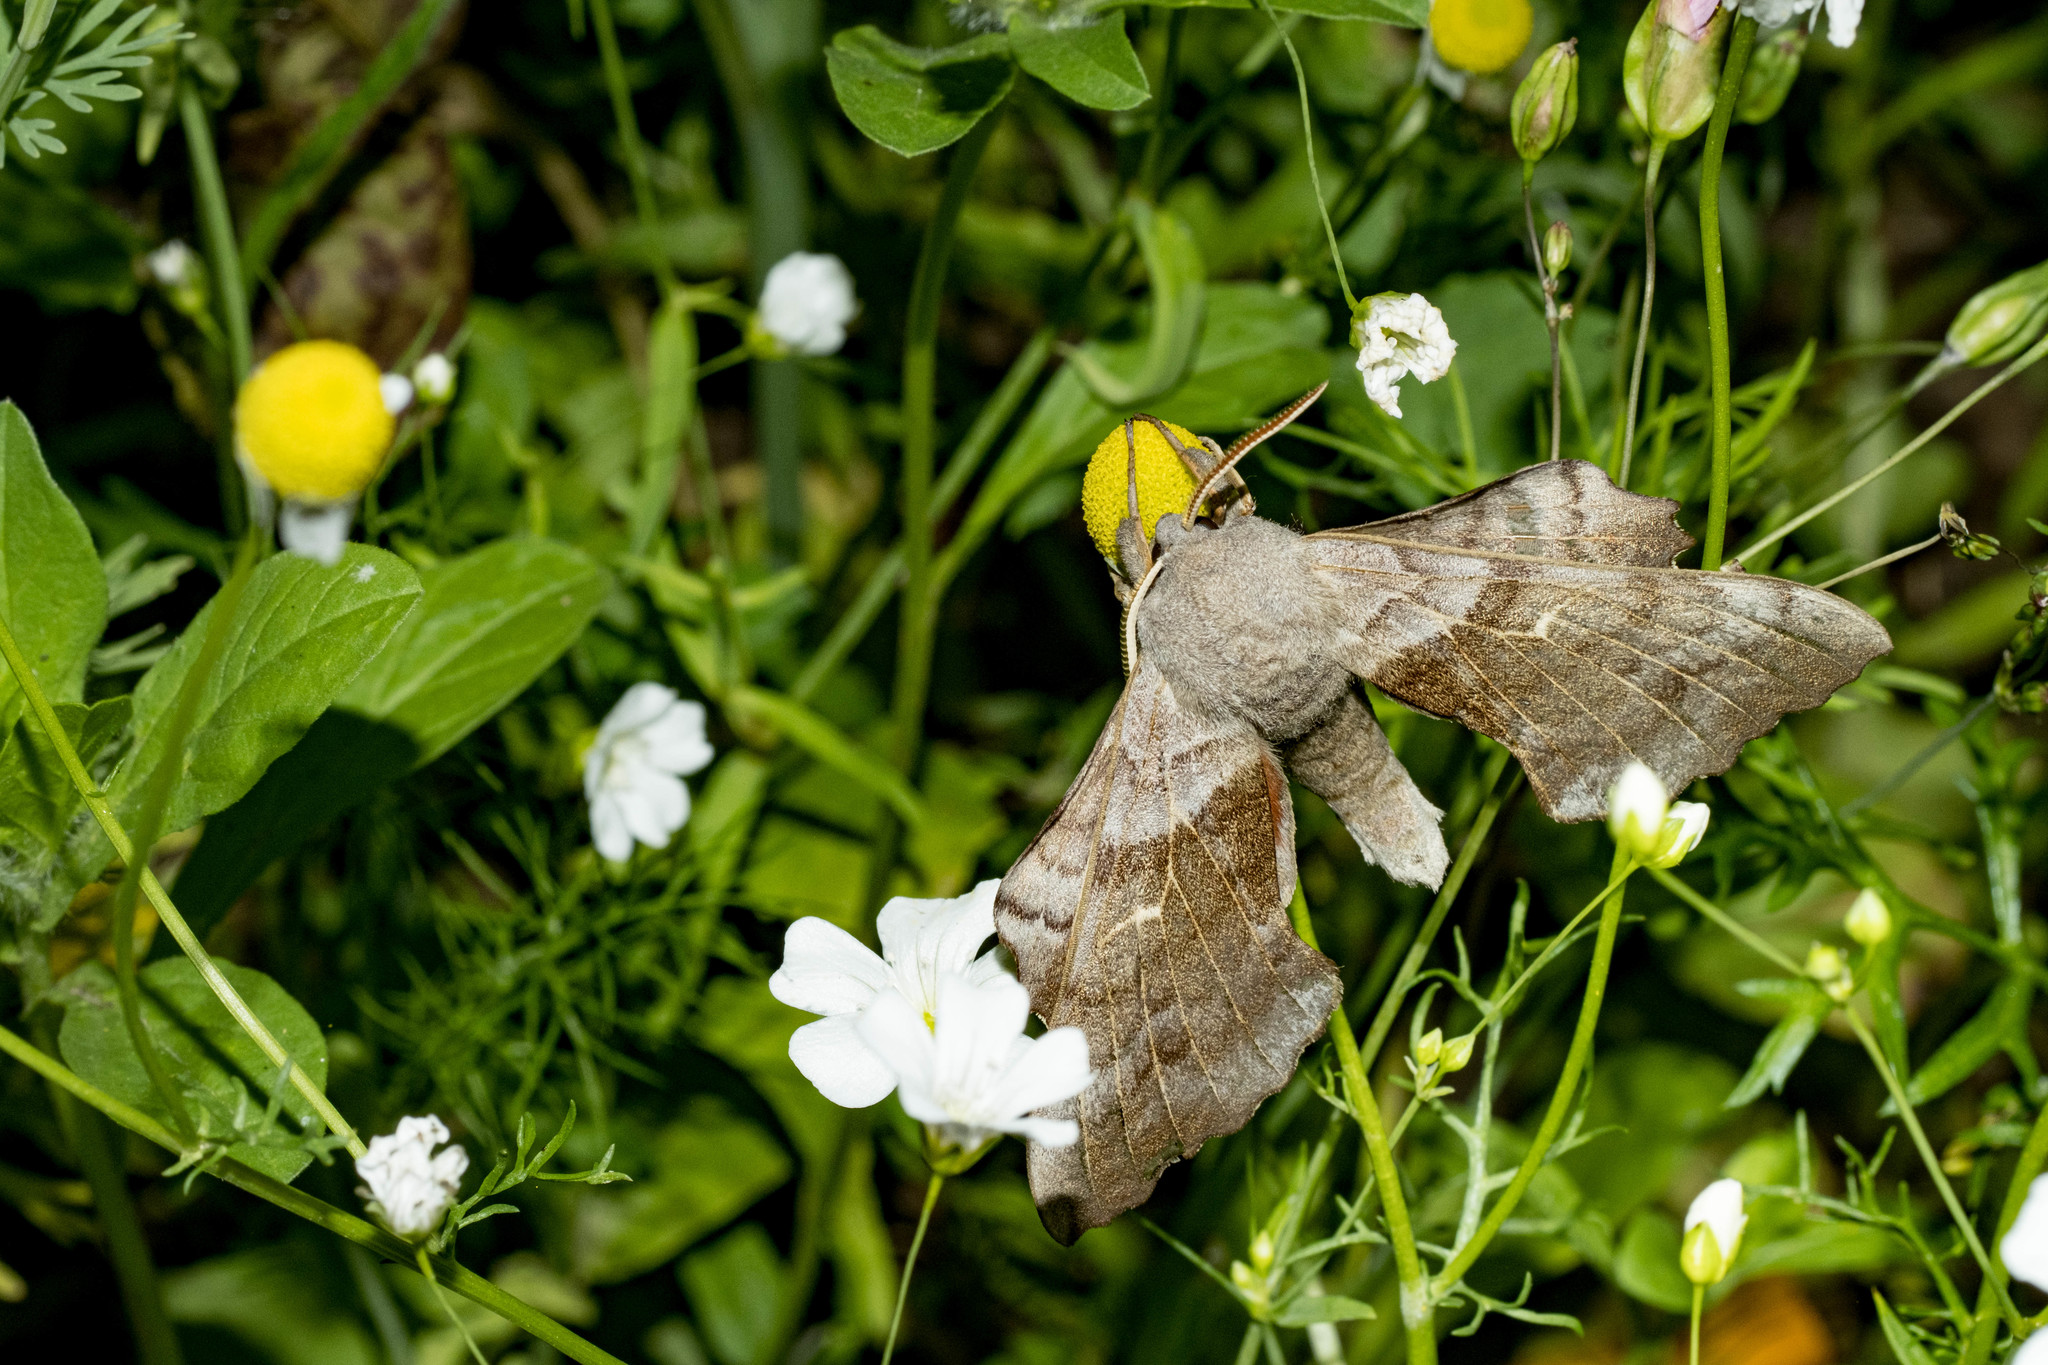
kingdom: Animalia
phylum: Arthropoda
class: Insecta
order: Lepidoptera
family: Sphingidae
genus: Laothoe
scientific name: Laothoe populi
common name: Poplar hawk-moth
